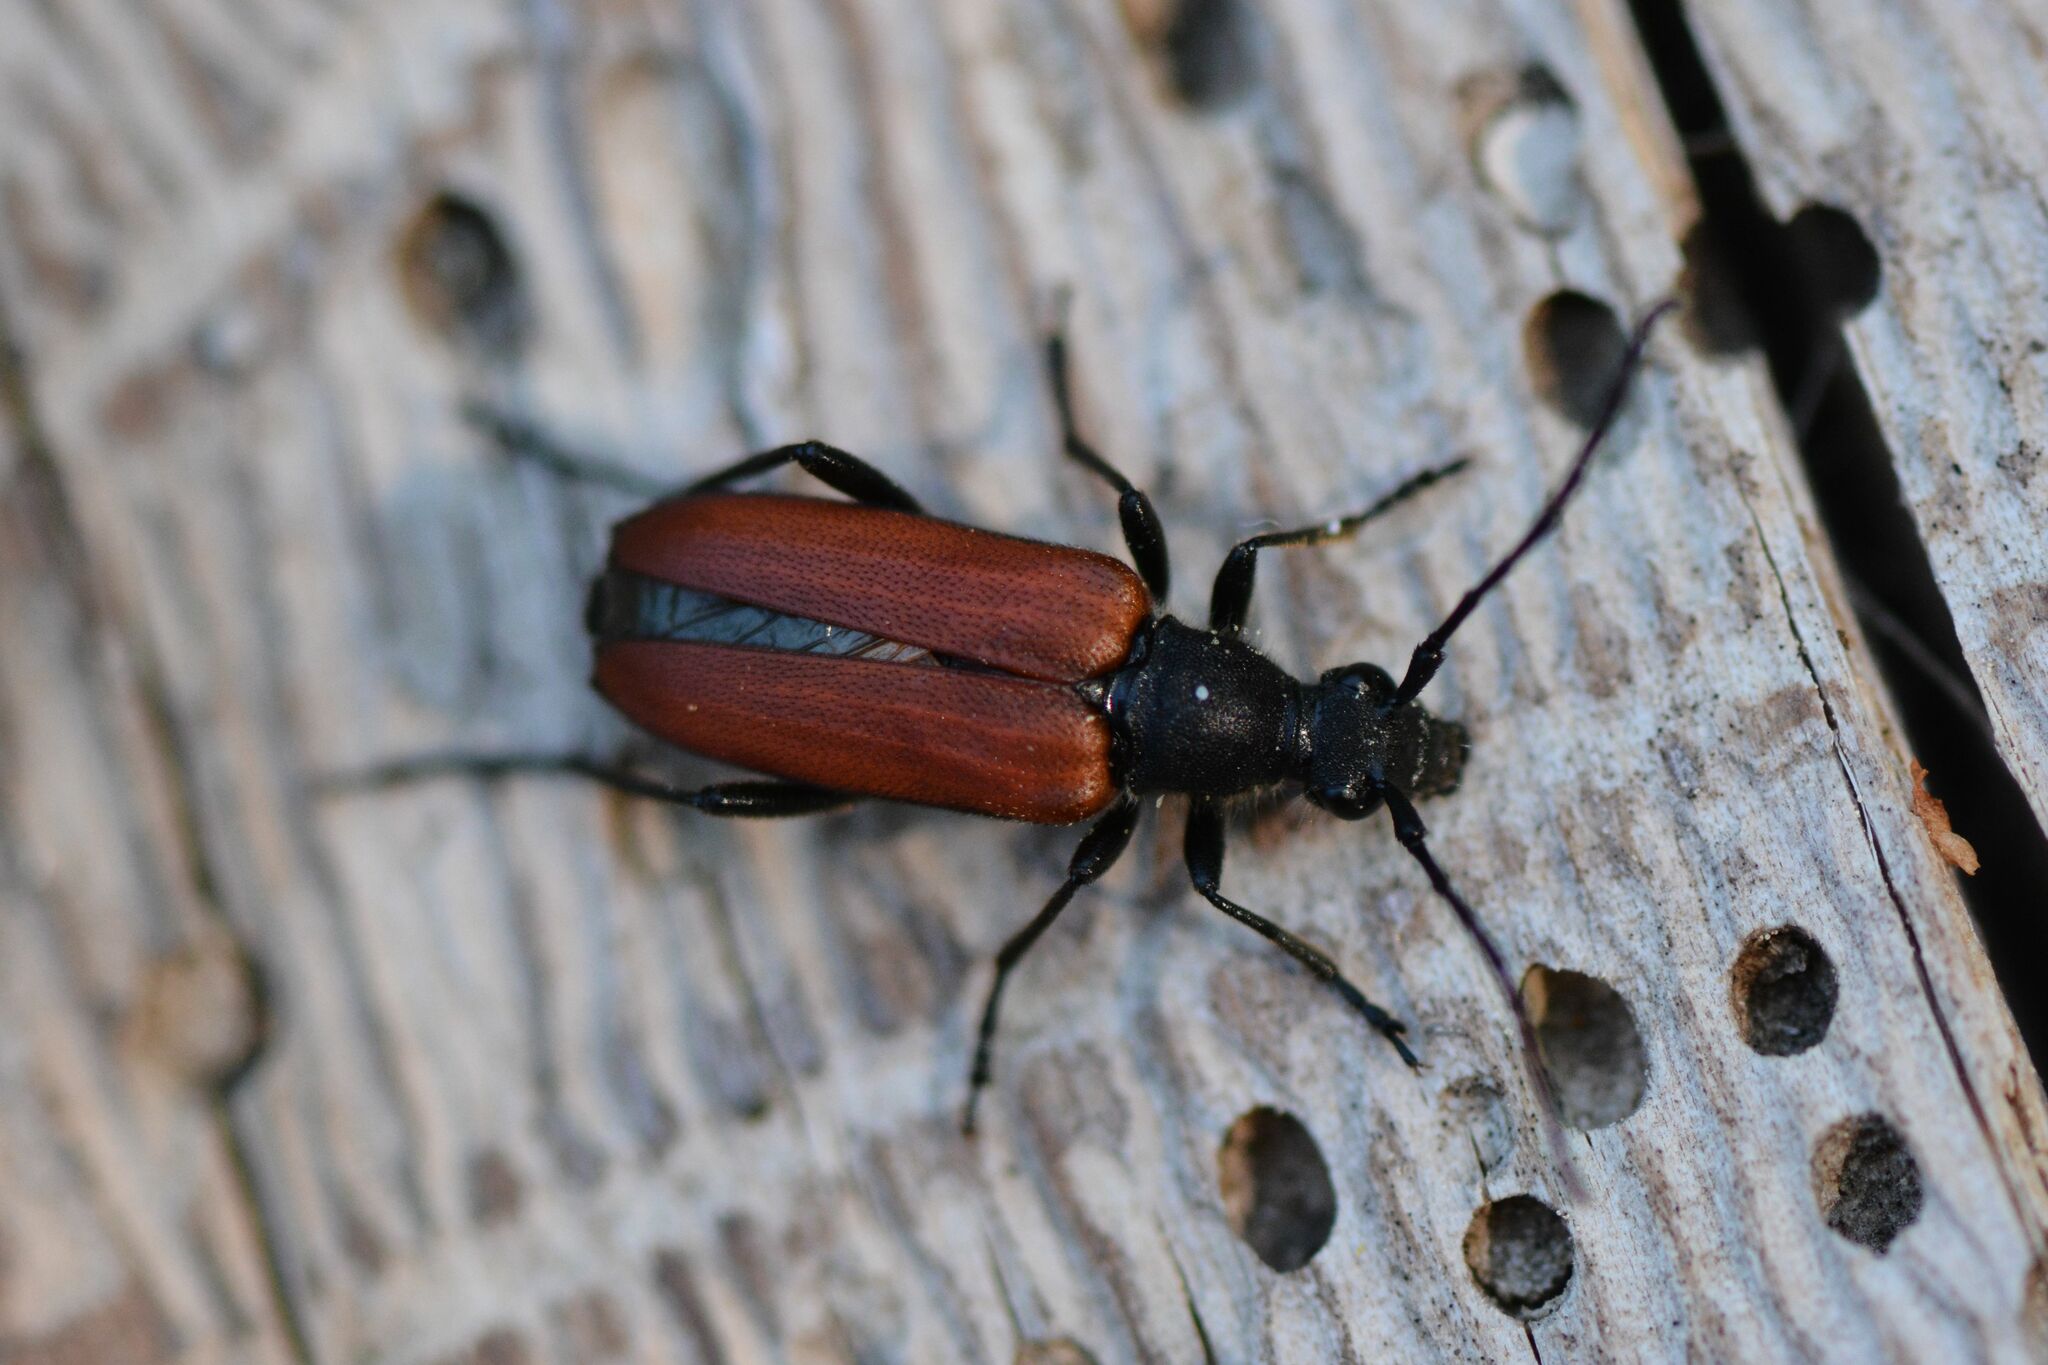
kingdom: Animalia
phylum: Arthropoda
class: Insecta
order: Coleoptera
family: Cerambycidae
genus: Anastrangalia
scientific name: Anastrangalia sanguinolenta
